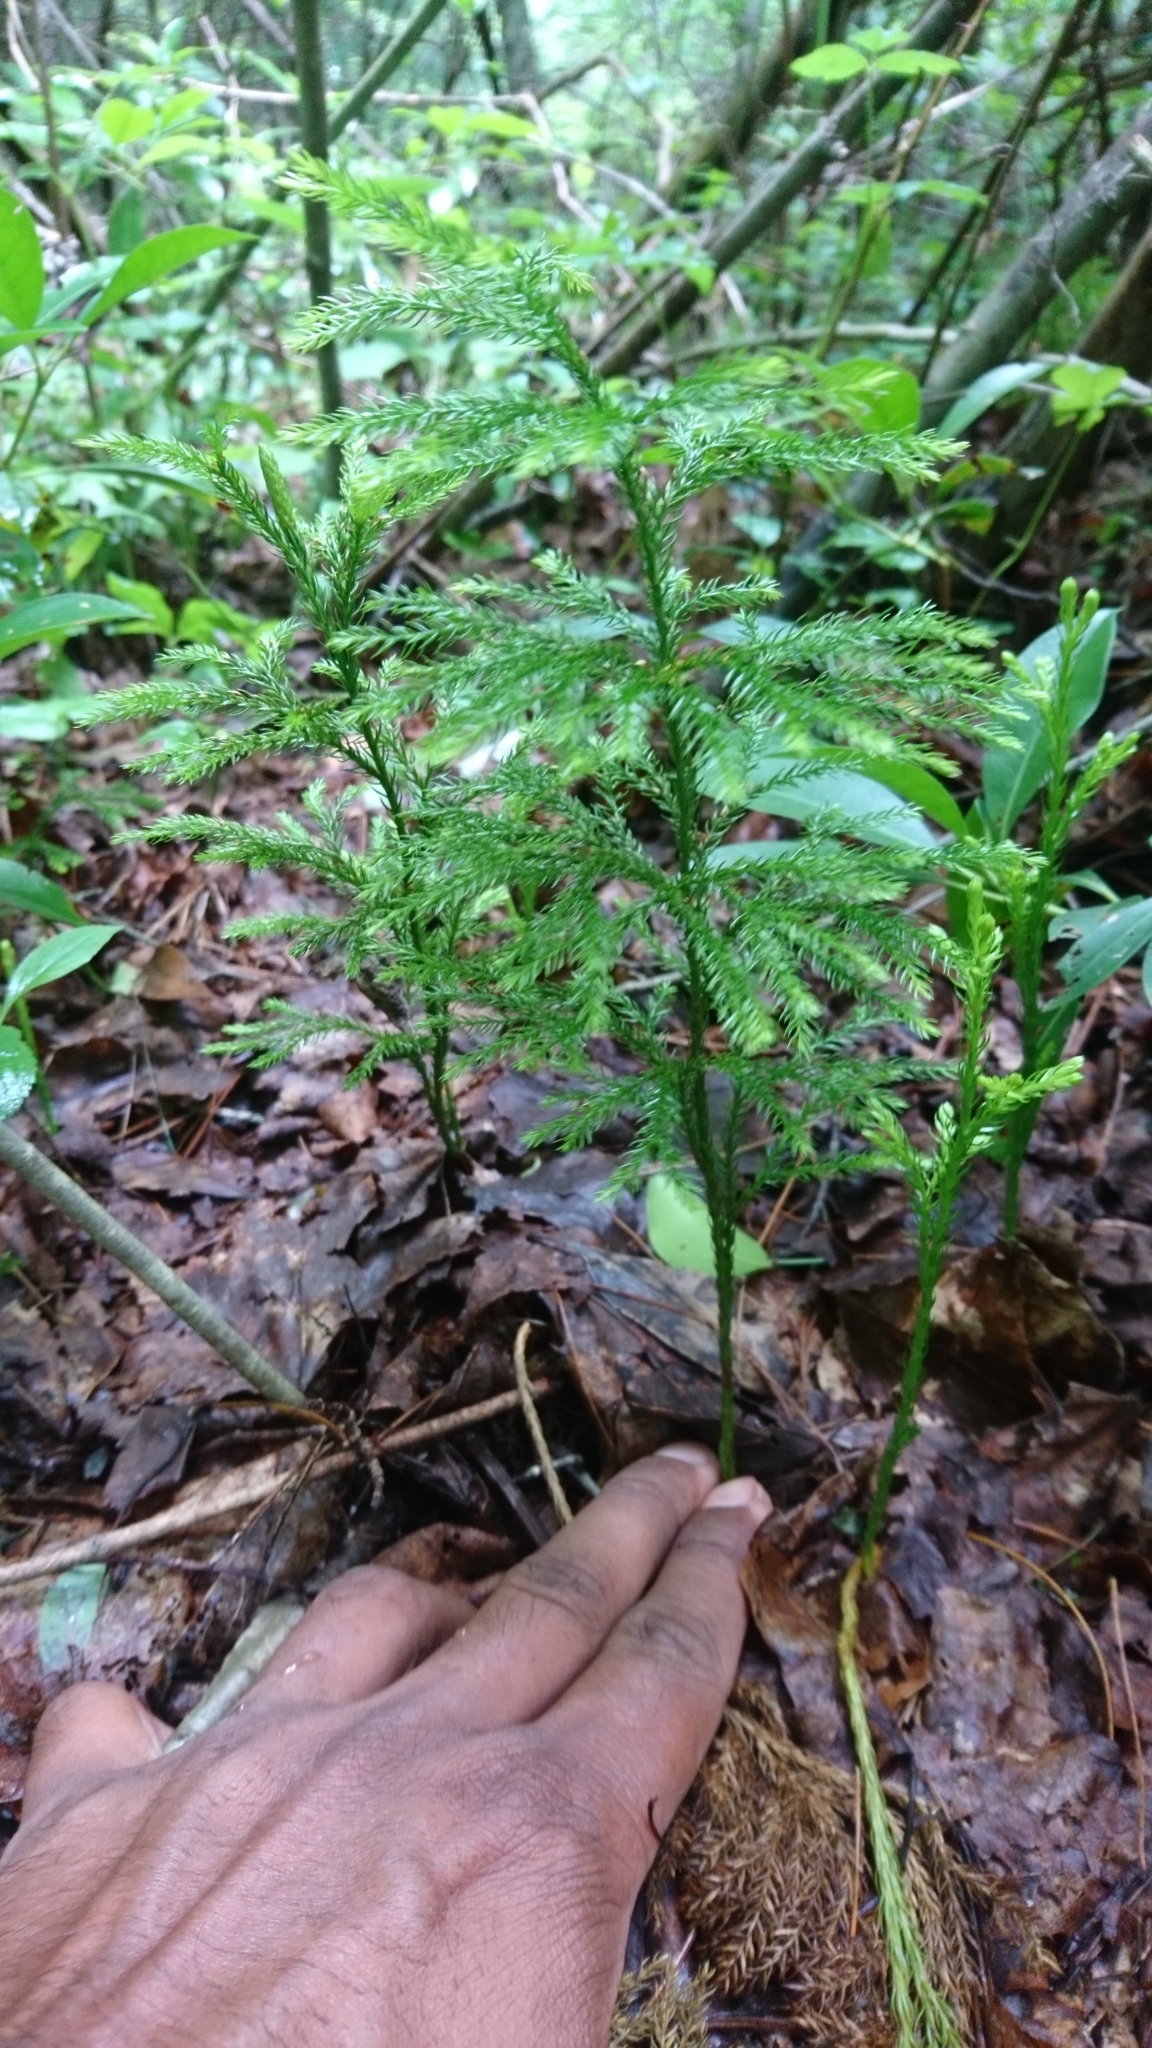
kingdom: Plantae
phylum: Tracheophyta
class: Lycopodiopsida
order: Lycopodiales
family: Lycopodiaceae
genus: Dendrolycopodium
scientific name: Dendrolycopodium obscurum
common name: Common ground-pine
